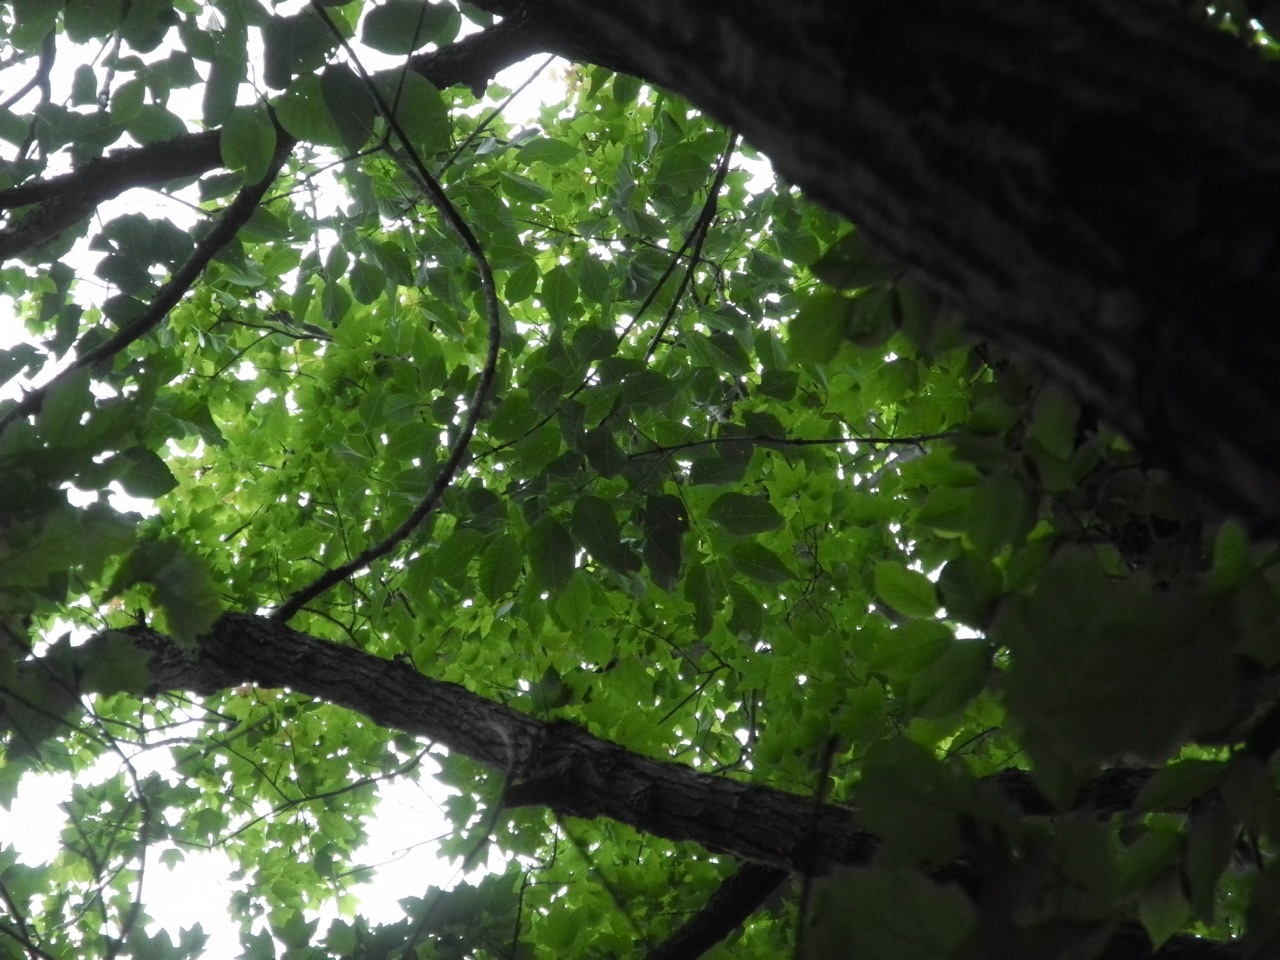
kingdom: Plantae
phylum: Tracheophyta
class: Magnoliopsida
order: Lamiales
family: Oleaceae
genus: Fraxinus
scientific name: Fraxinus americana
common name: White ash
